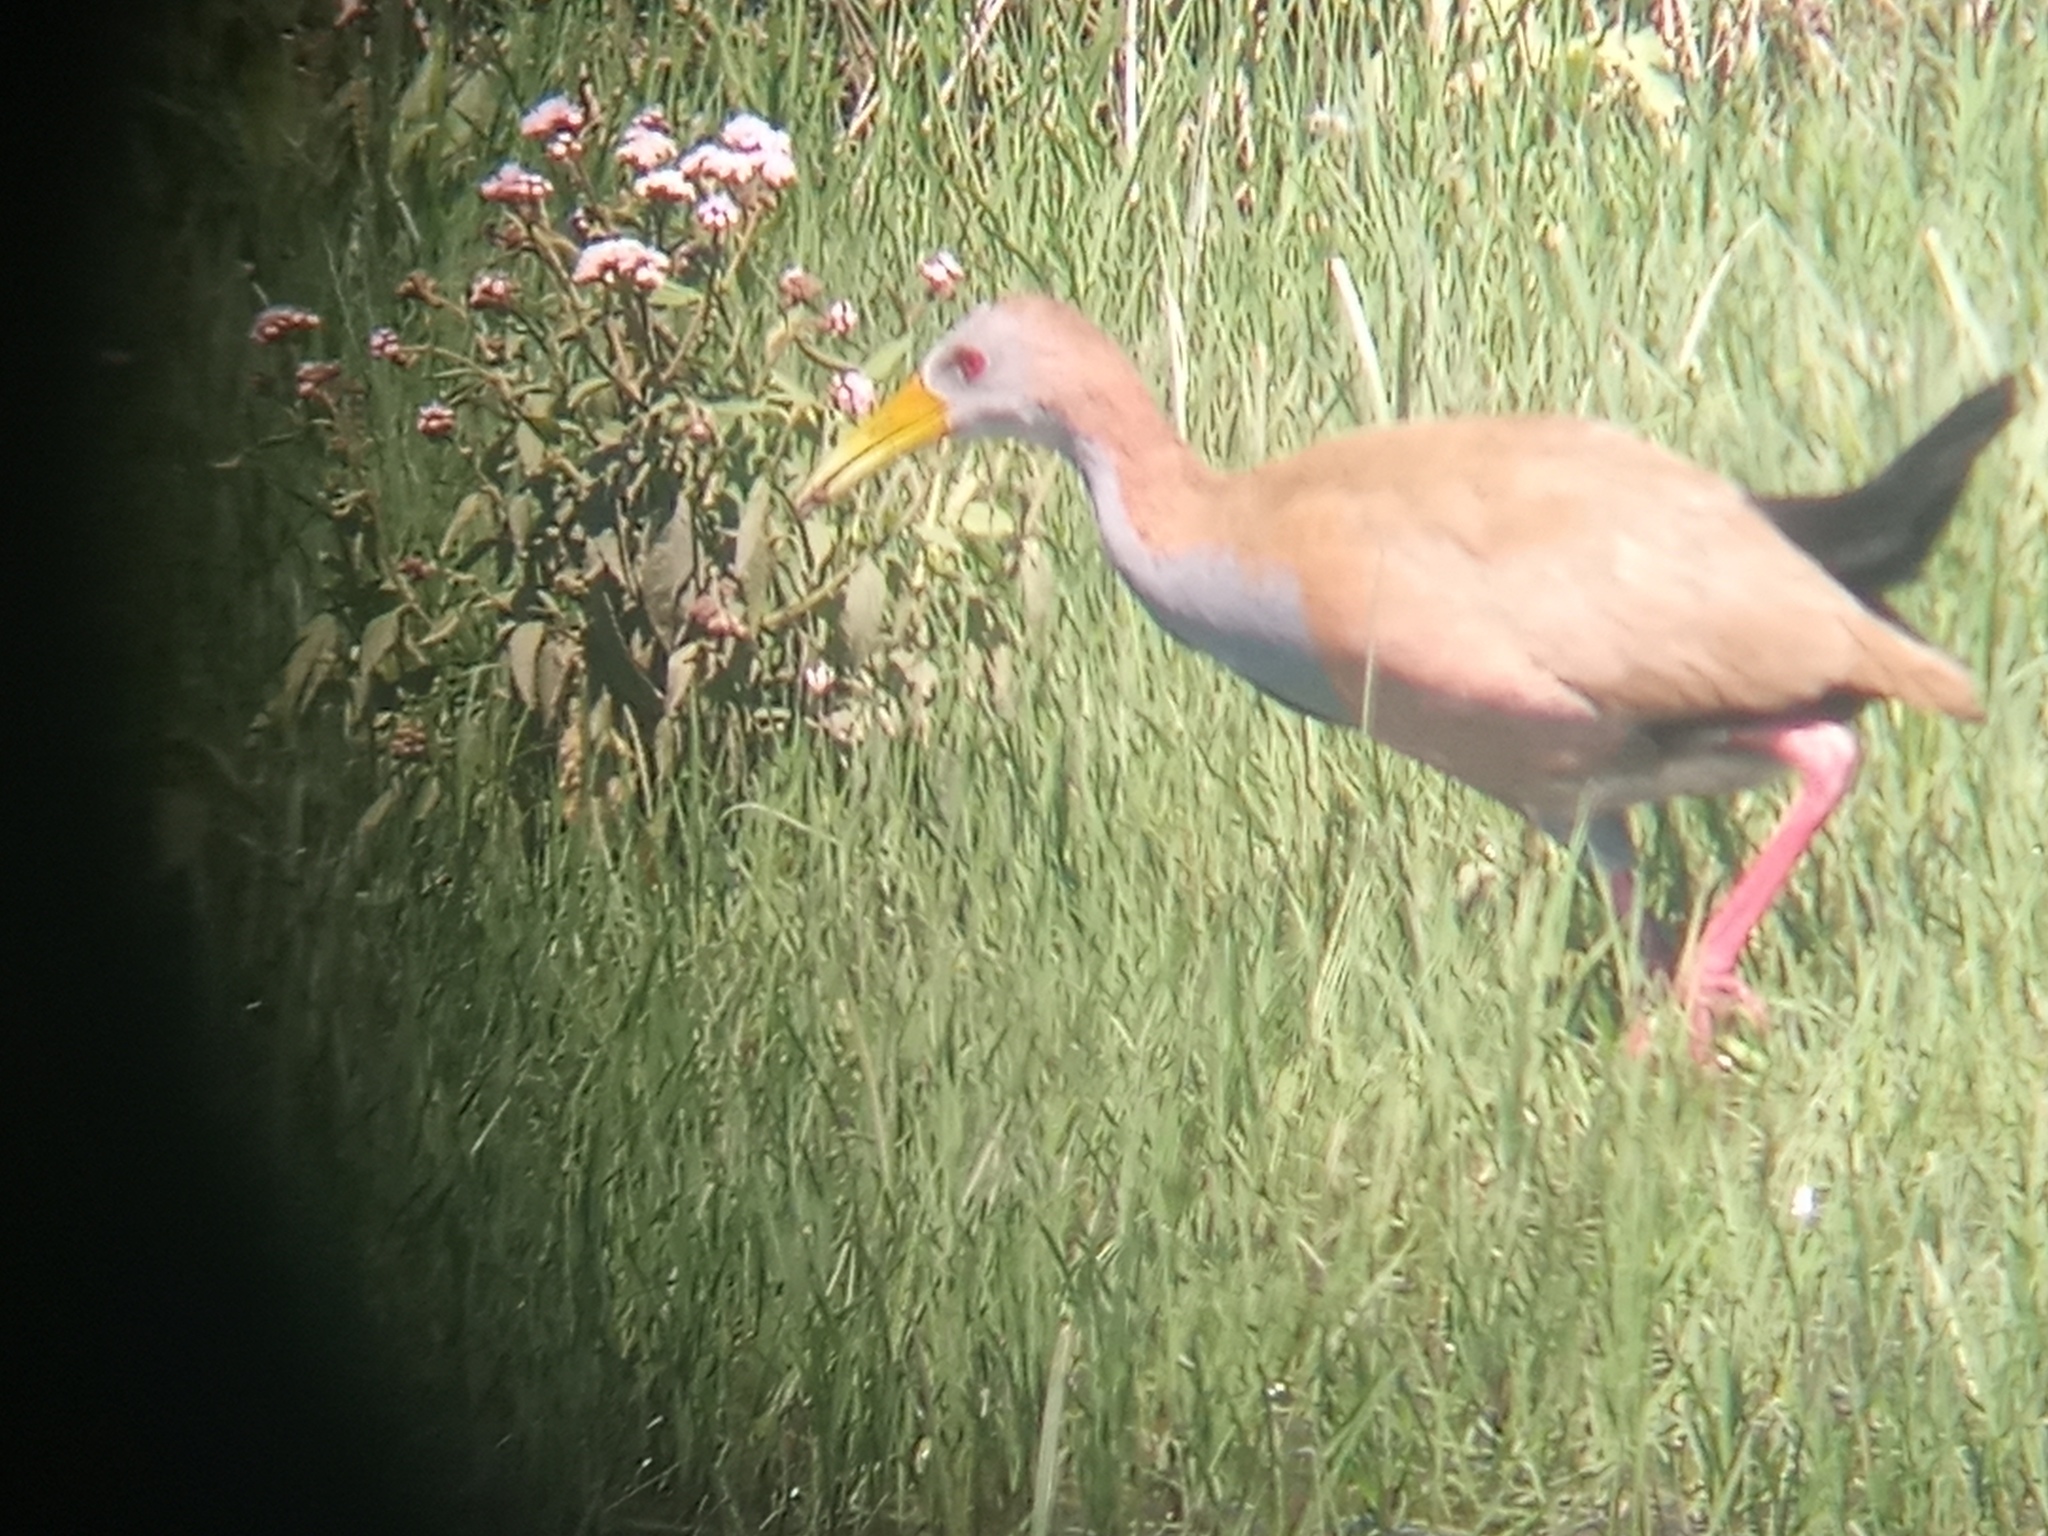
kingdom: Animalia
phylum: Chordata
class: Aves
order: Gruiformes
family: Rallidae
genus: Aramides
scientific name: Aramides ypecaha
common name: Giant wood rail
